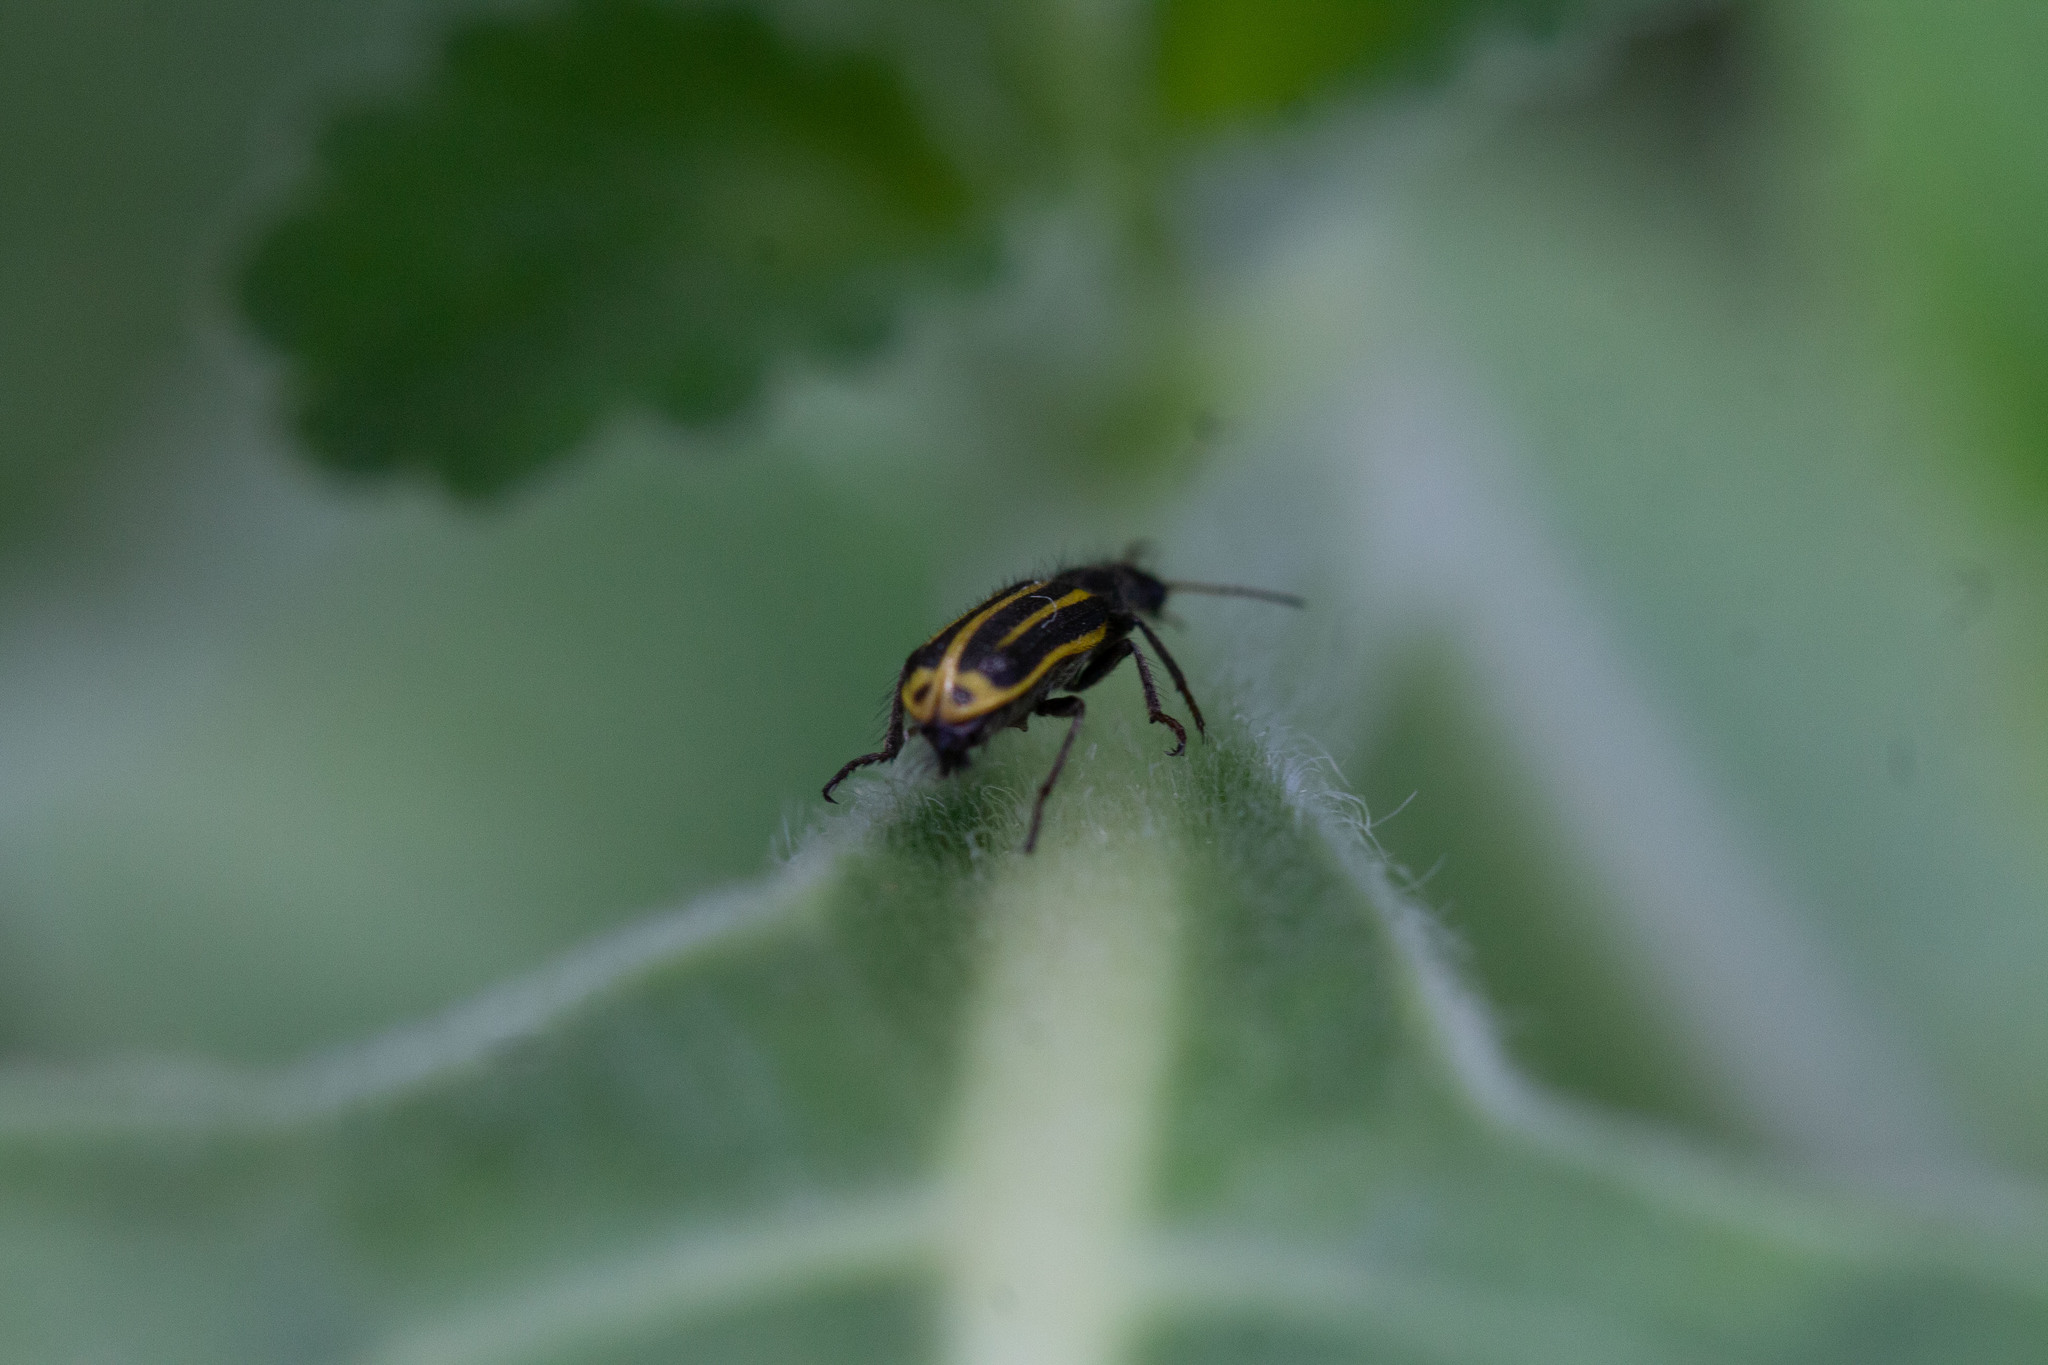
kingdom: Animalia
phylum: Arthropoda
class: Insecta
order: Coleoptera
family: Melyridae
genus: Astylus
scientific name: Astylus
